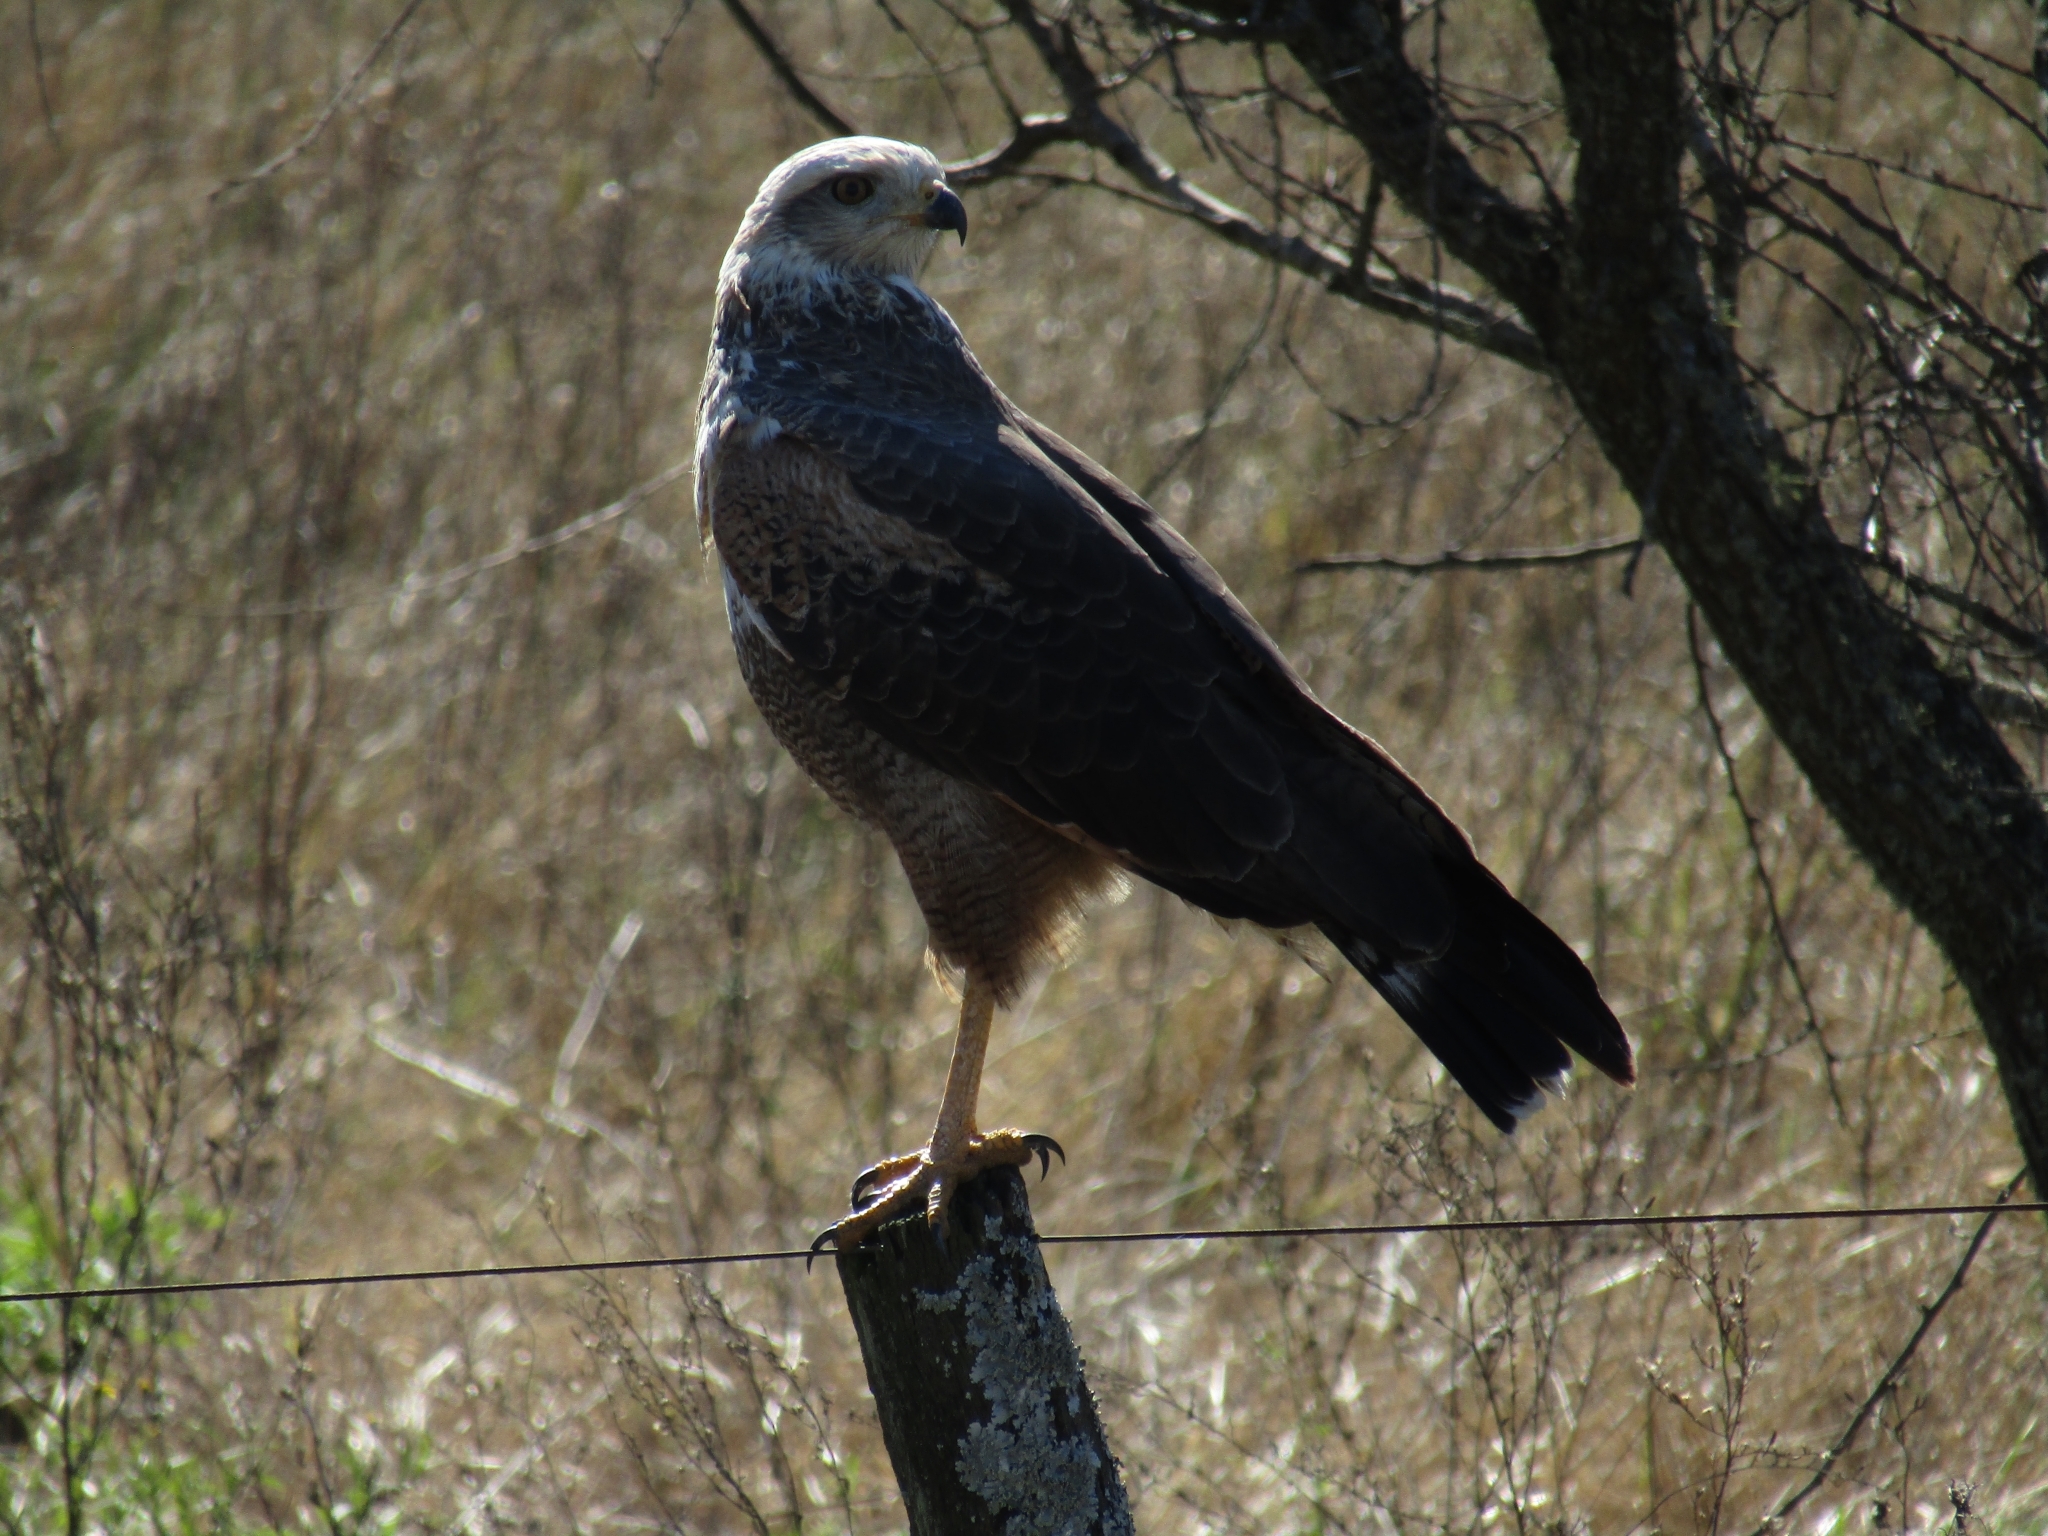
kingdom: Animalia
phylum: Chordata
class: Aves
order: Accipitriformes
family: Accipitridae
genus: Buteogallus
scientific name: Buteogallus meridionalis
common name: Savanna hawk
